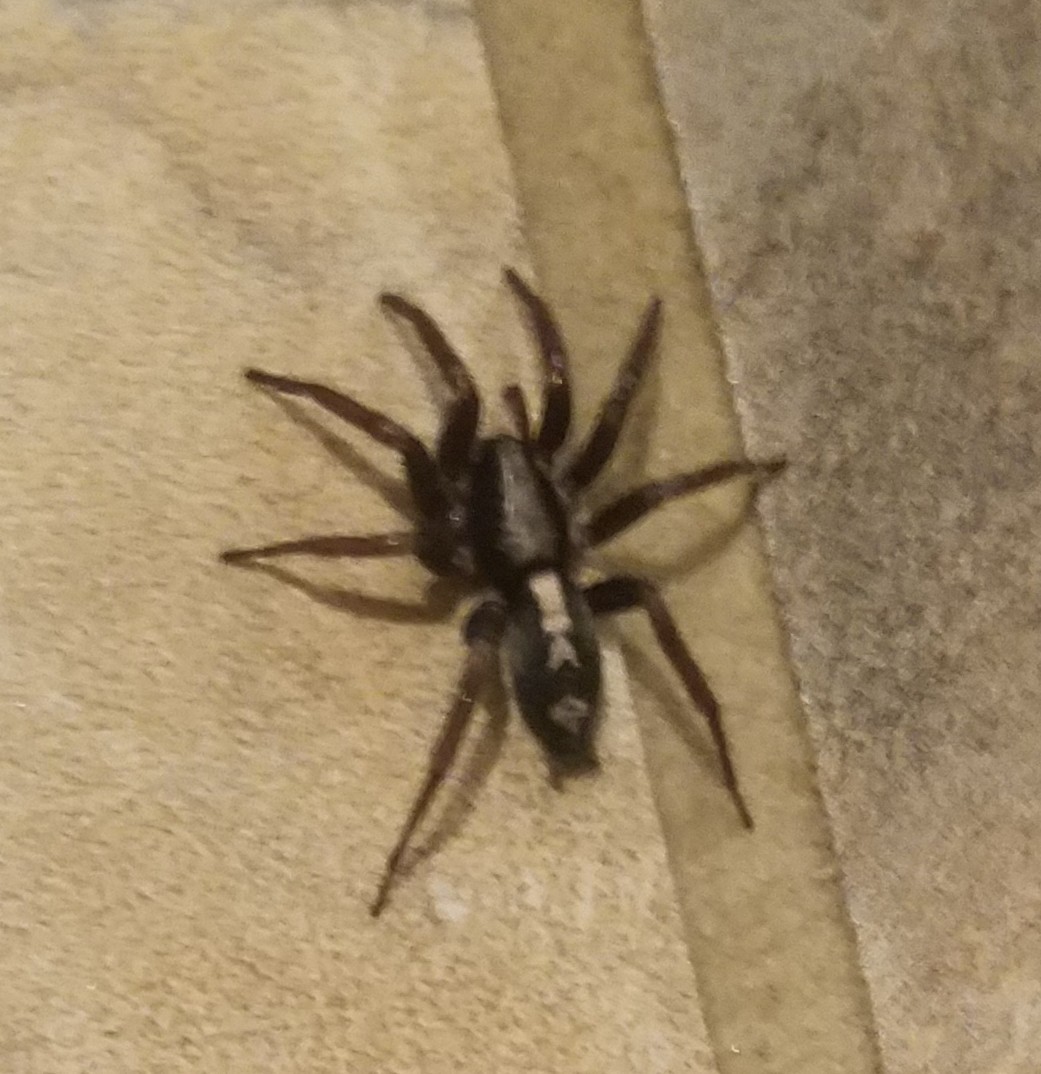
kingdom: Animalia
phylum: Arthropoda
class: Arachnida
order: Araneae
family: Gnaphosidae
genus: Herpyllus
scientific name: Herpyllus ecclesiasticus
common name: Eastern parson spider
